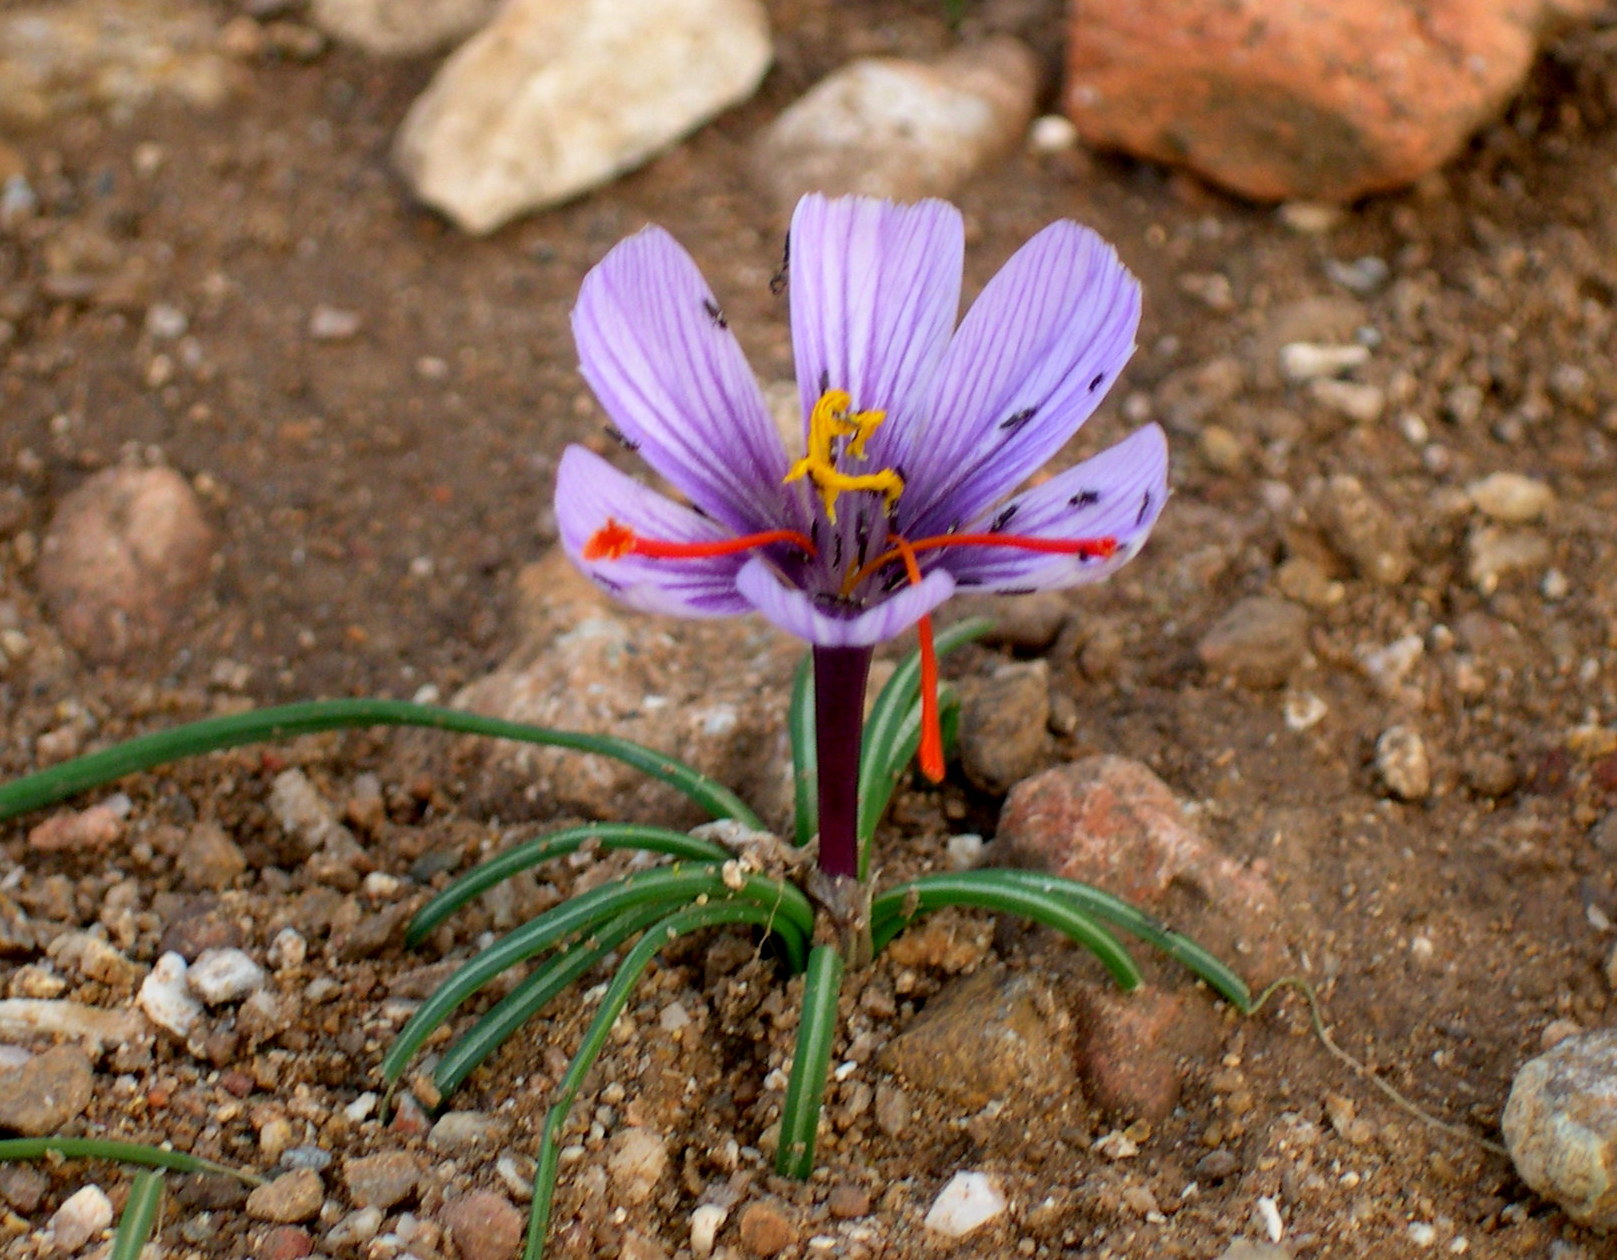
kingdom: Plantae
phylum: Tracheophyta
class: Liliopsida
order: Asparagales
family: Iridaceae
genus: Crocus
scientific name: Crocus cartwrightianus
